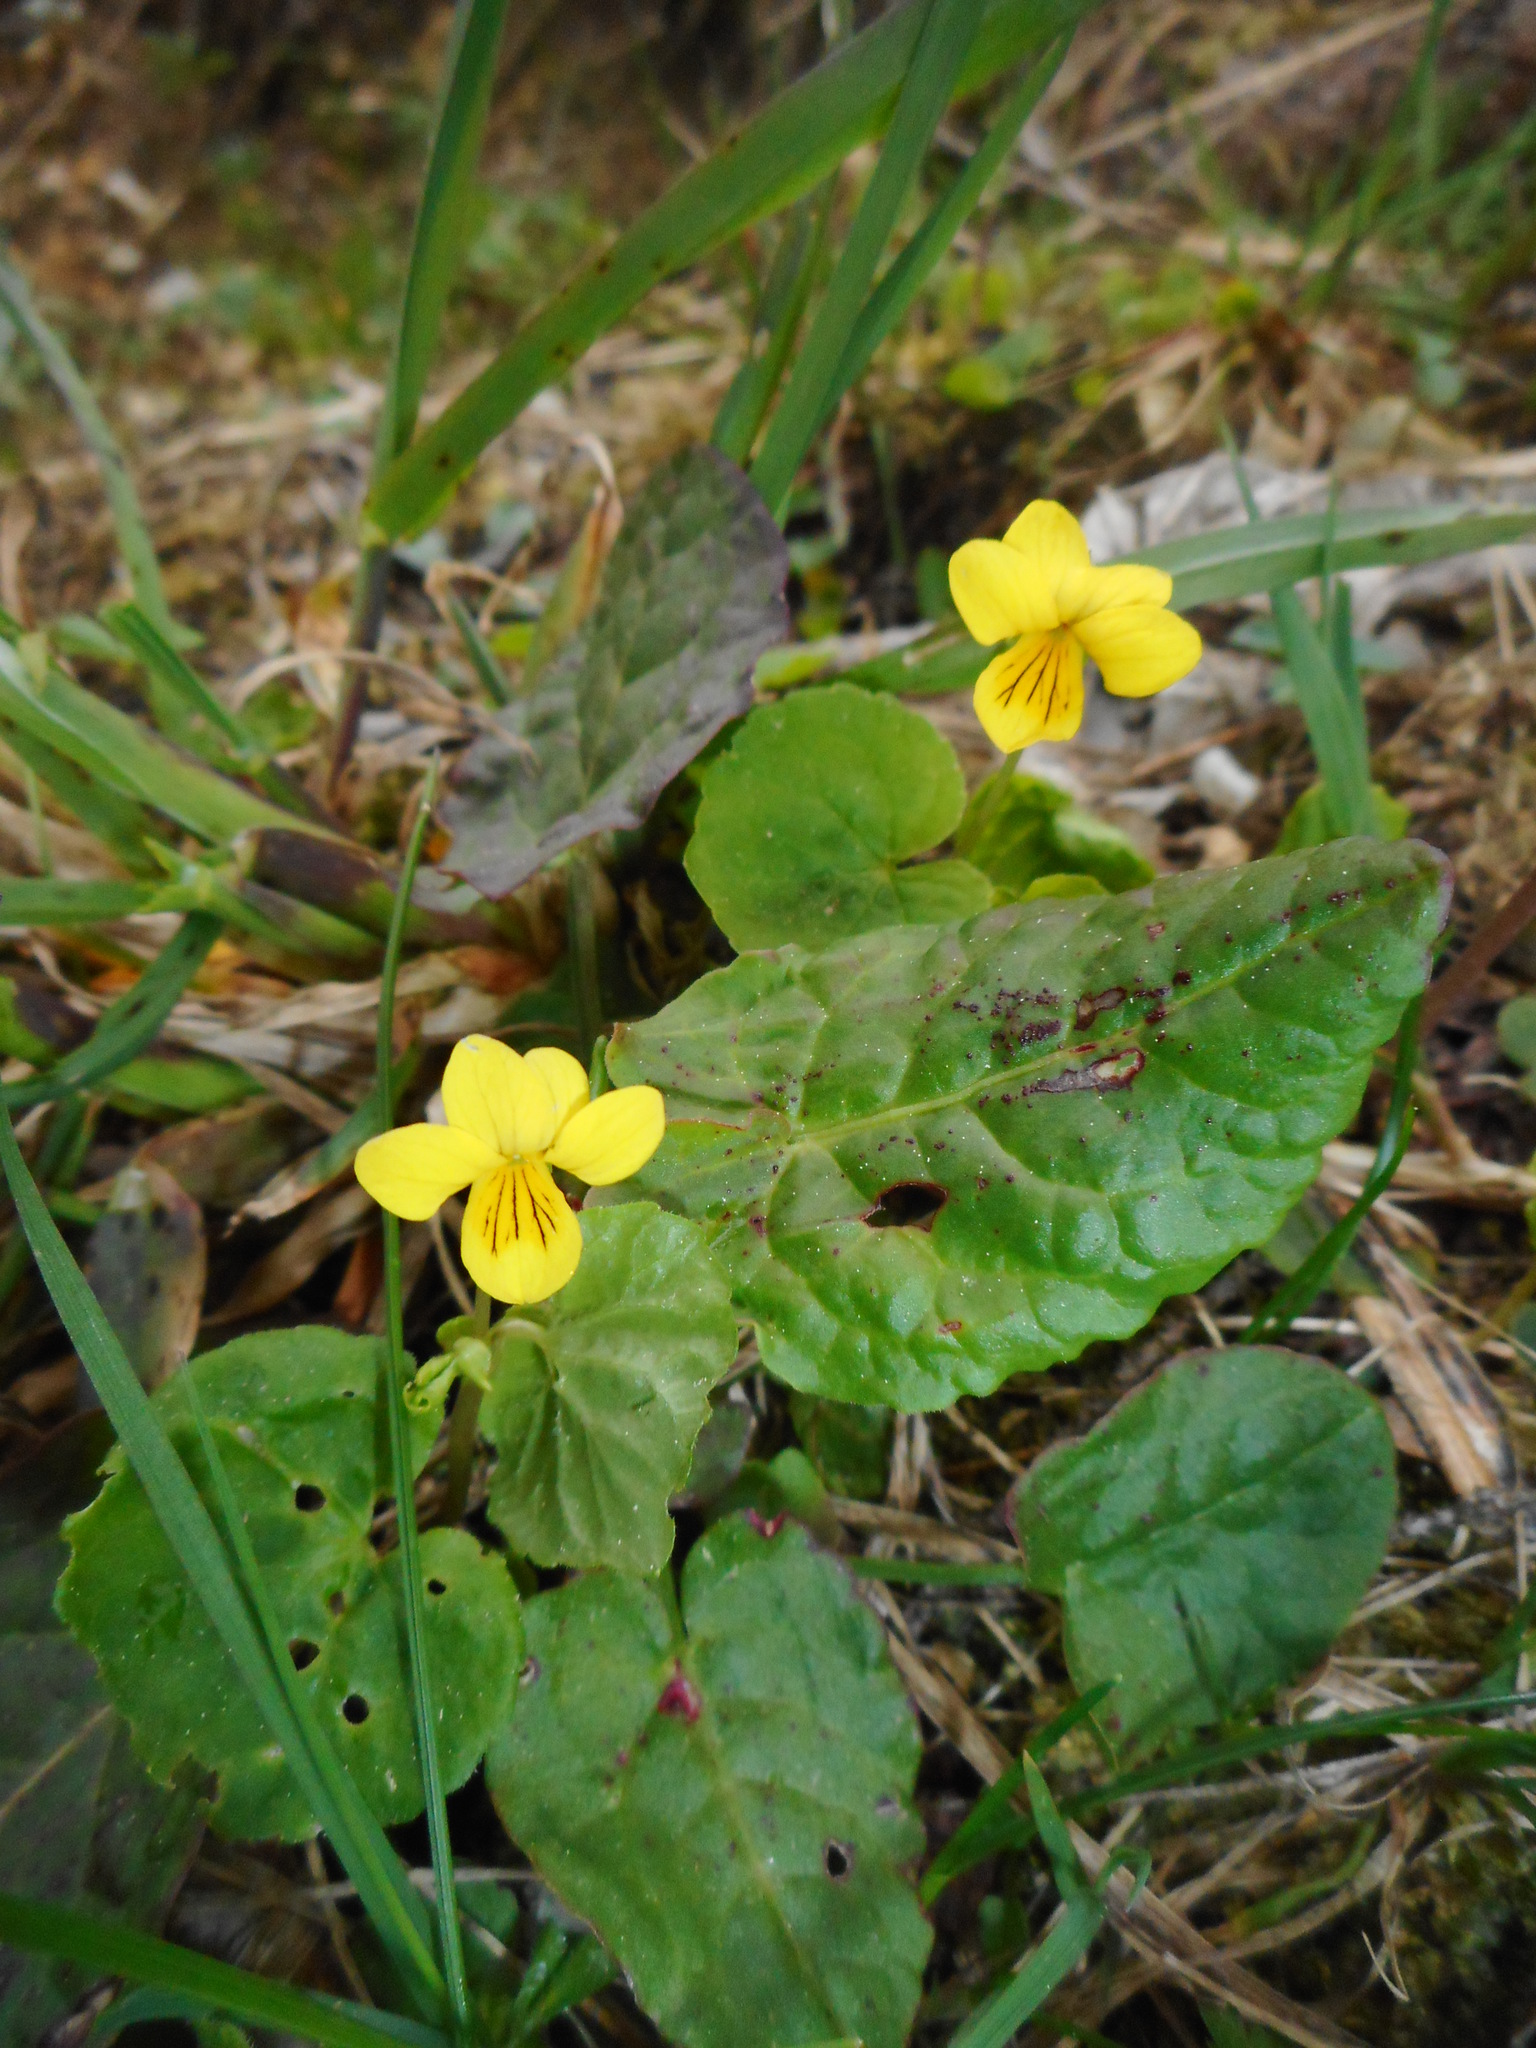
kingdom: Plantae
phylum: Tracheophyta
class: Magnoliopsida
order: Malpighiales
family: Violaceae
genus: Viola
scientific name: Viola biflora
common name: Alpine yellow violet
